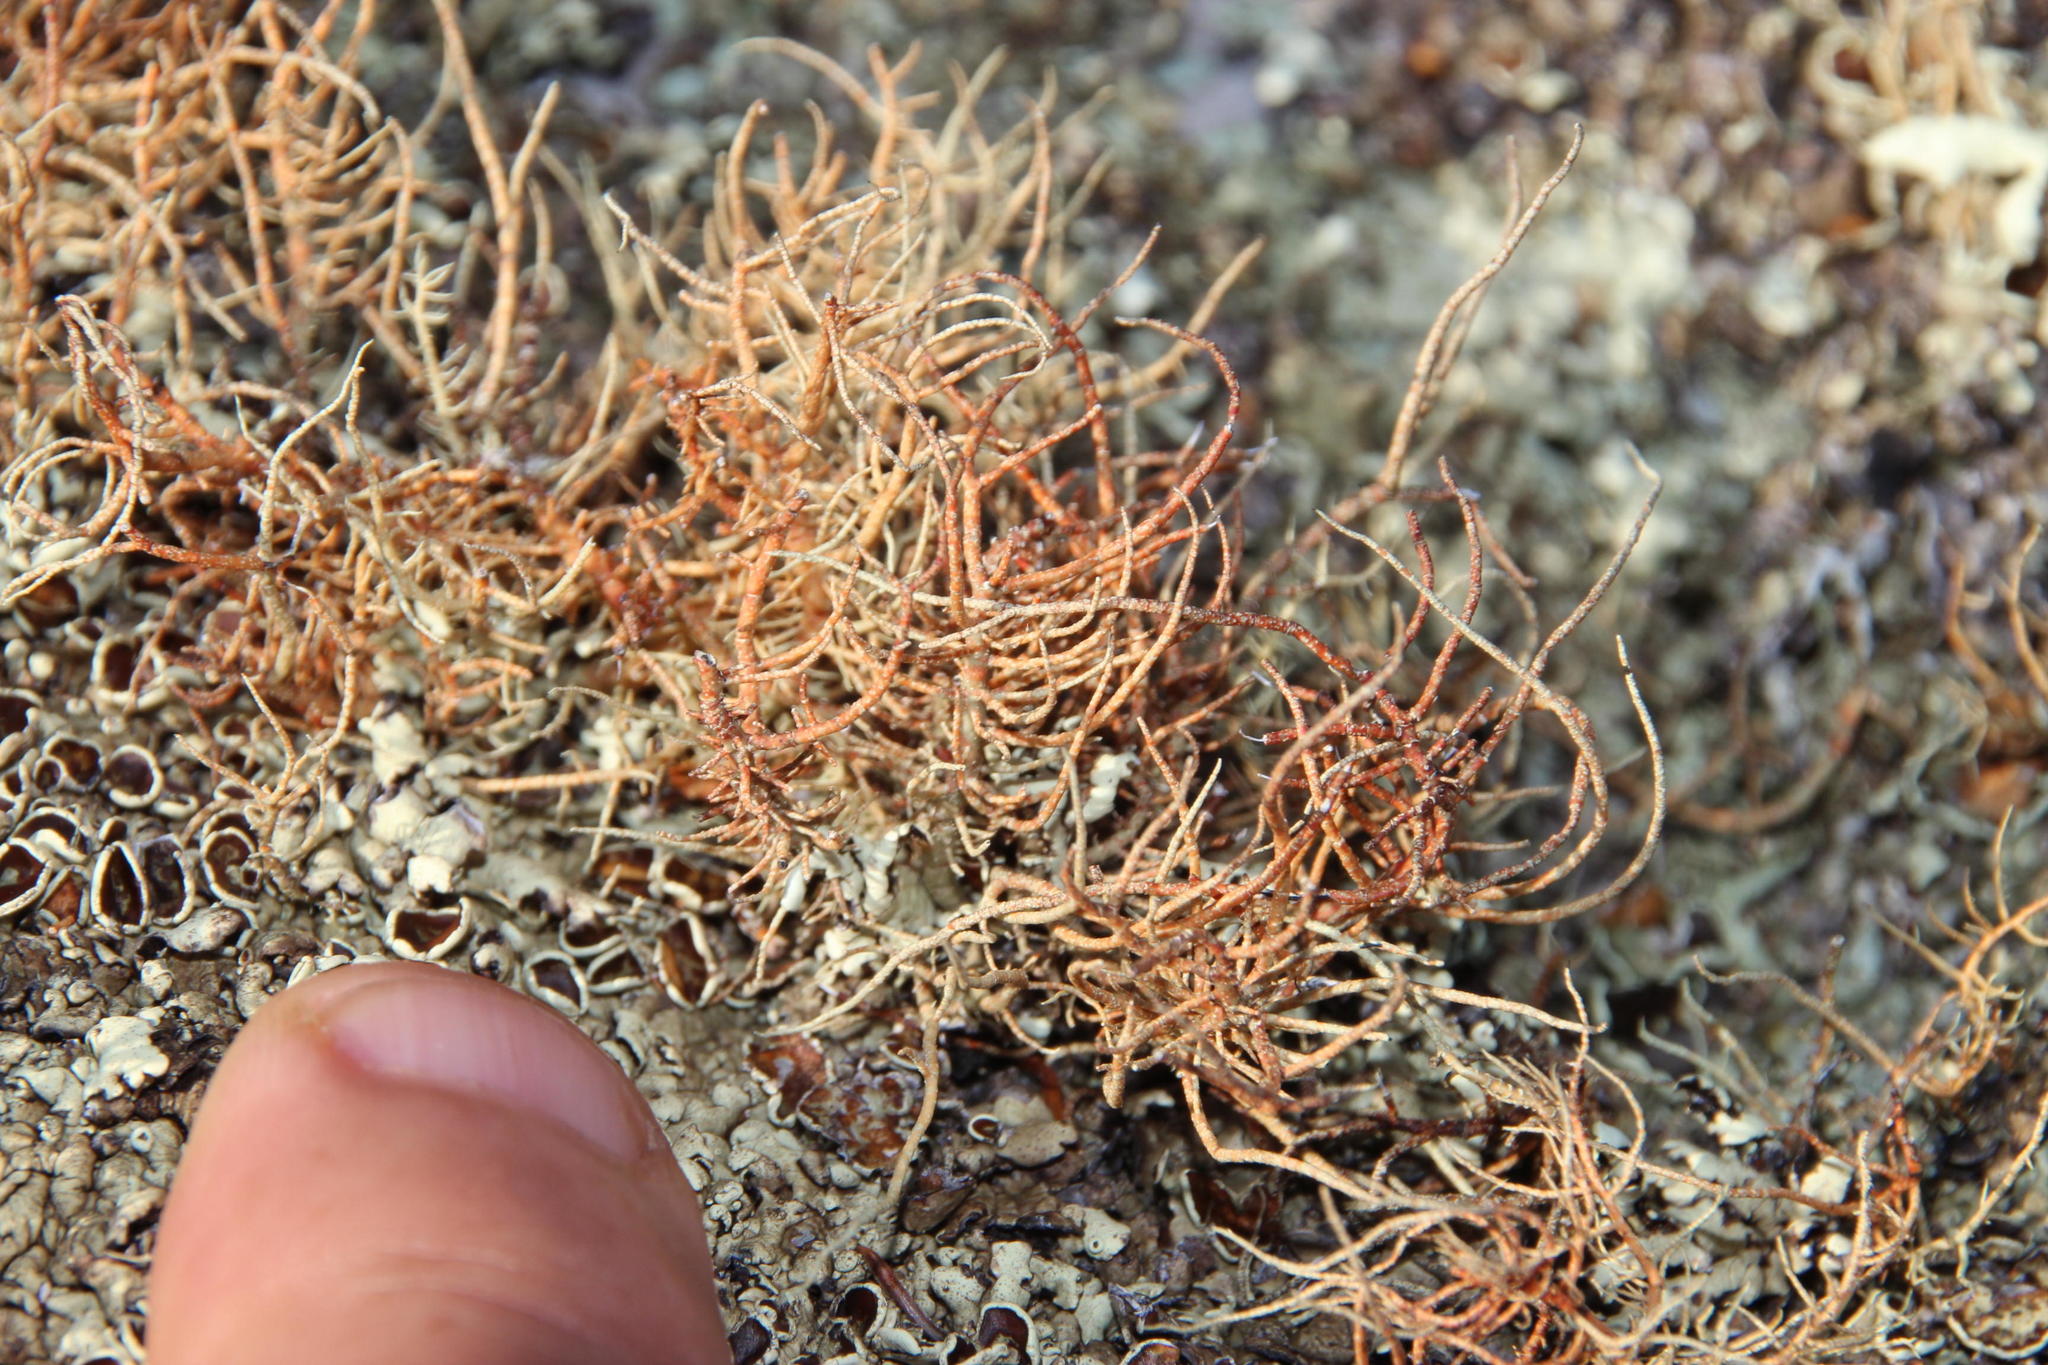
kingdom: Fungi
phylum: Ascomycota
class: Lecanoromycetes
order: Lecanorales
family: Parmeliaceae
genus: Usnea
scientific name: Usnea maculata
